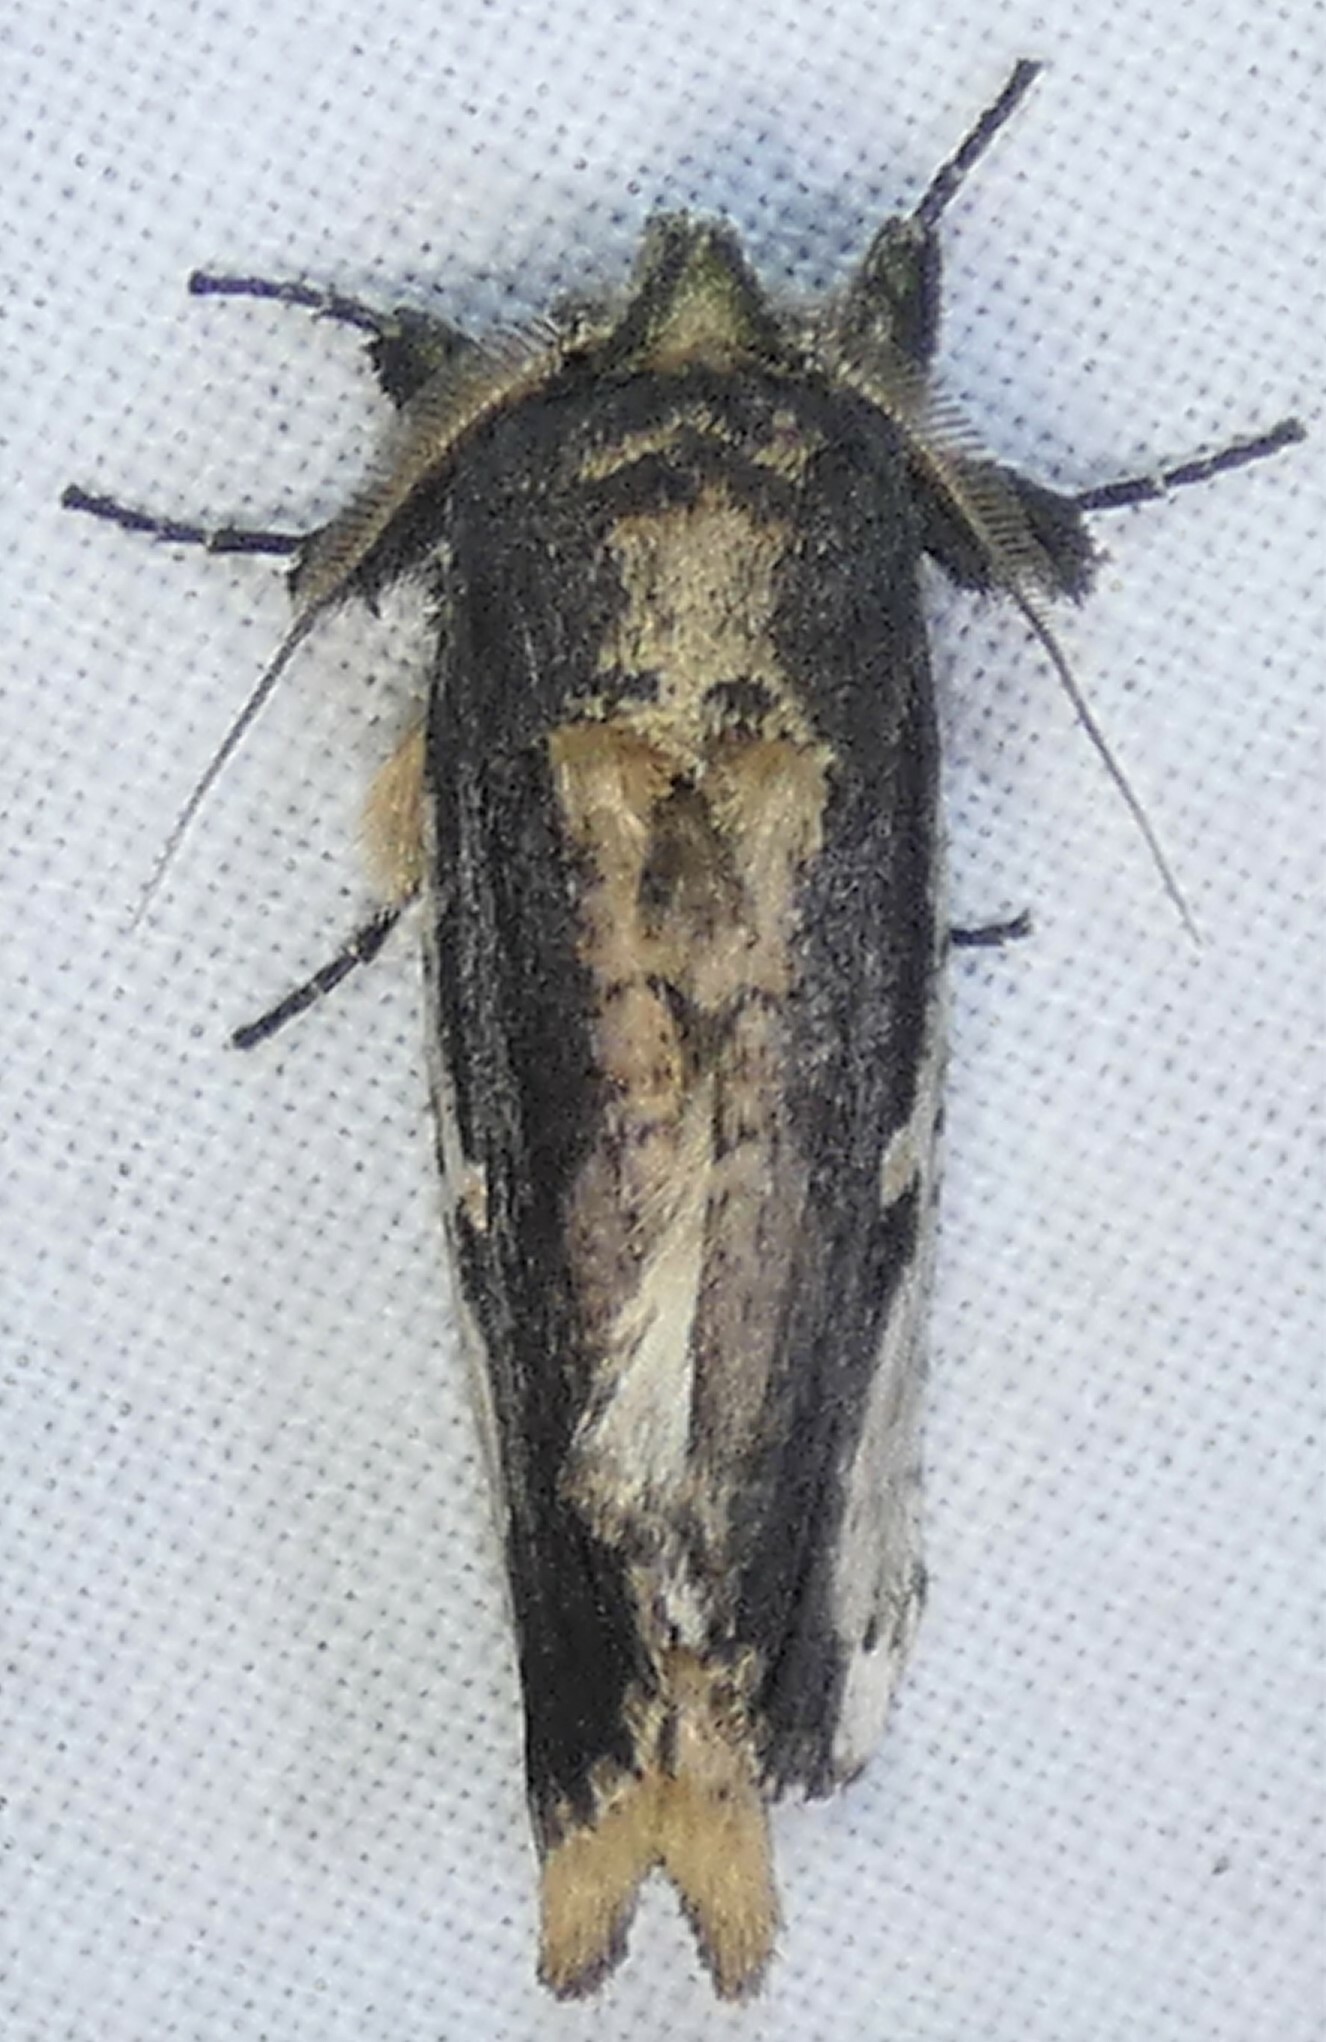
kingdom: Animalia
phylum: Arthropoda
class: Insecta
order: Lepidoptera
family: Notodontidae
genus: Schizura
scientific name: Schizura ipomaeae
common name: Morning-glory prominent
